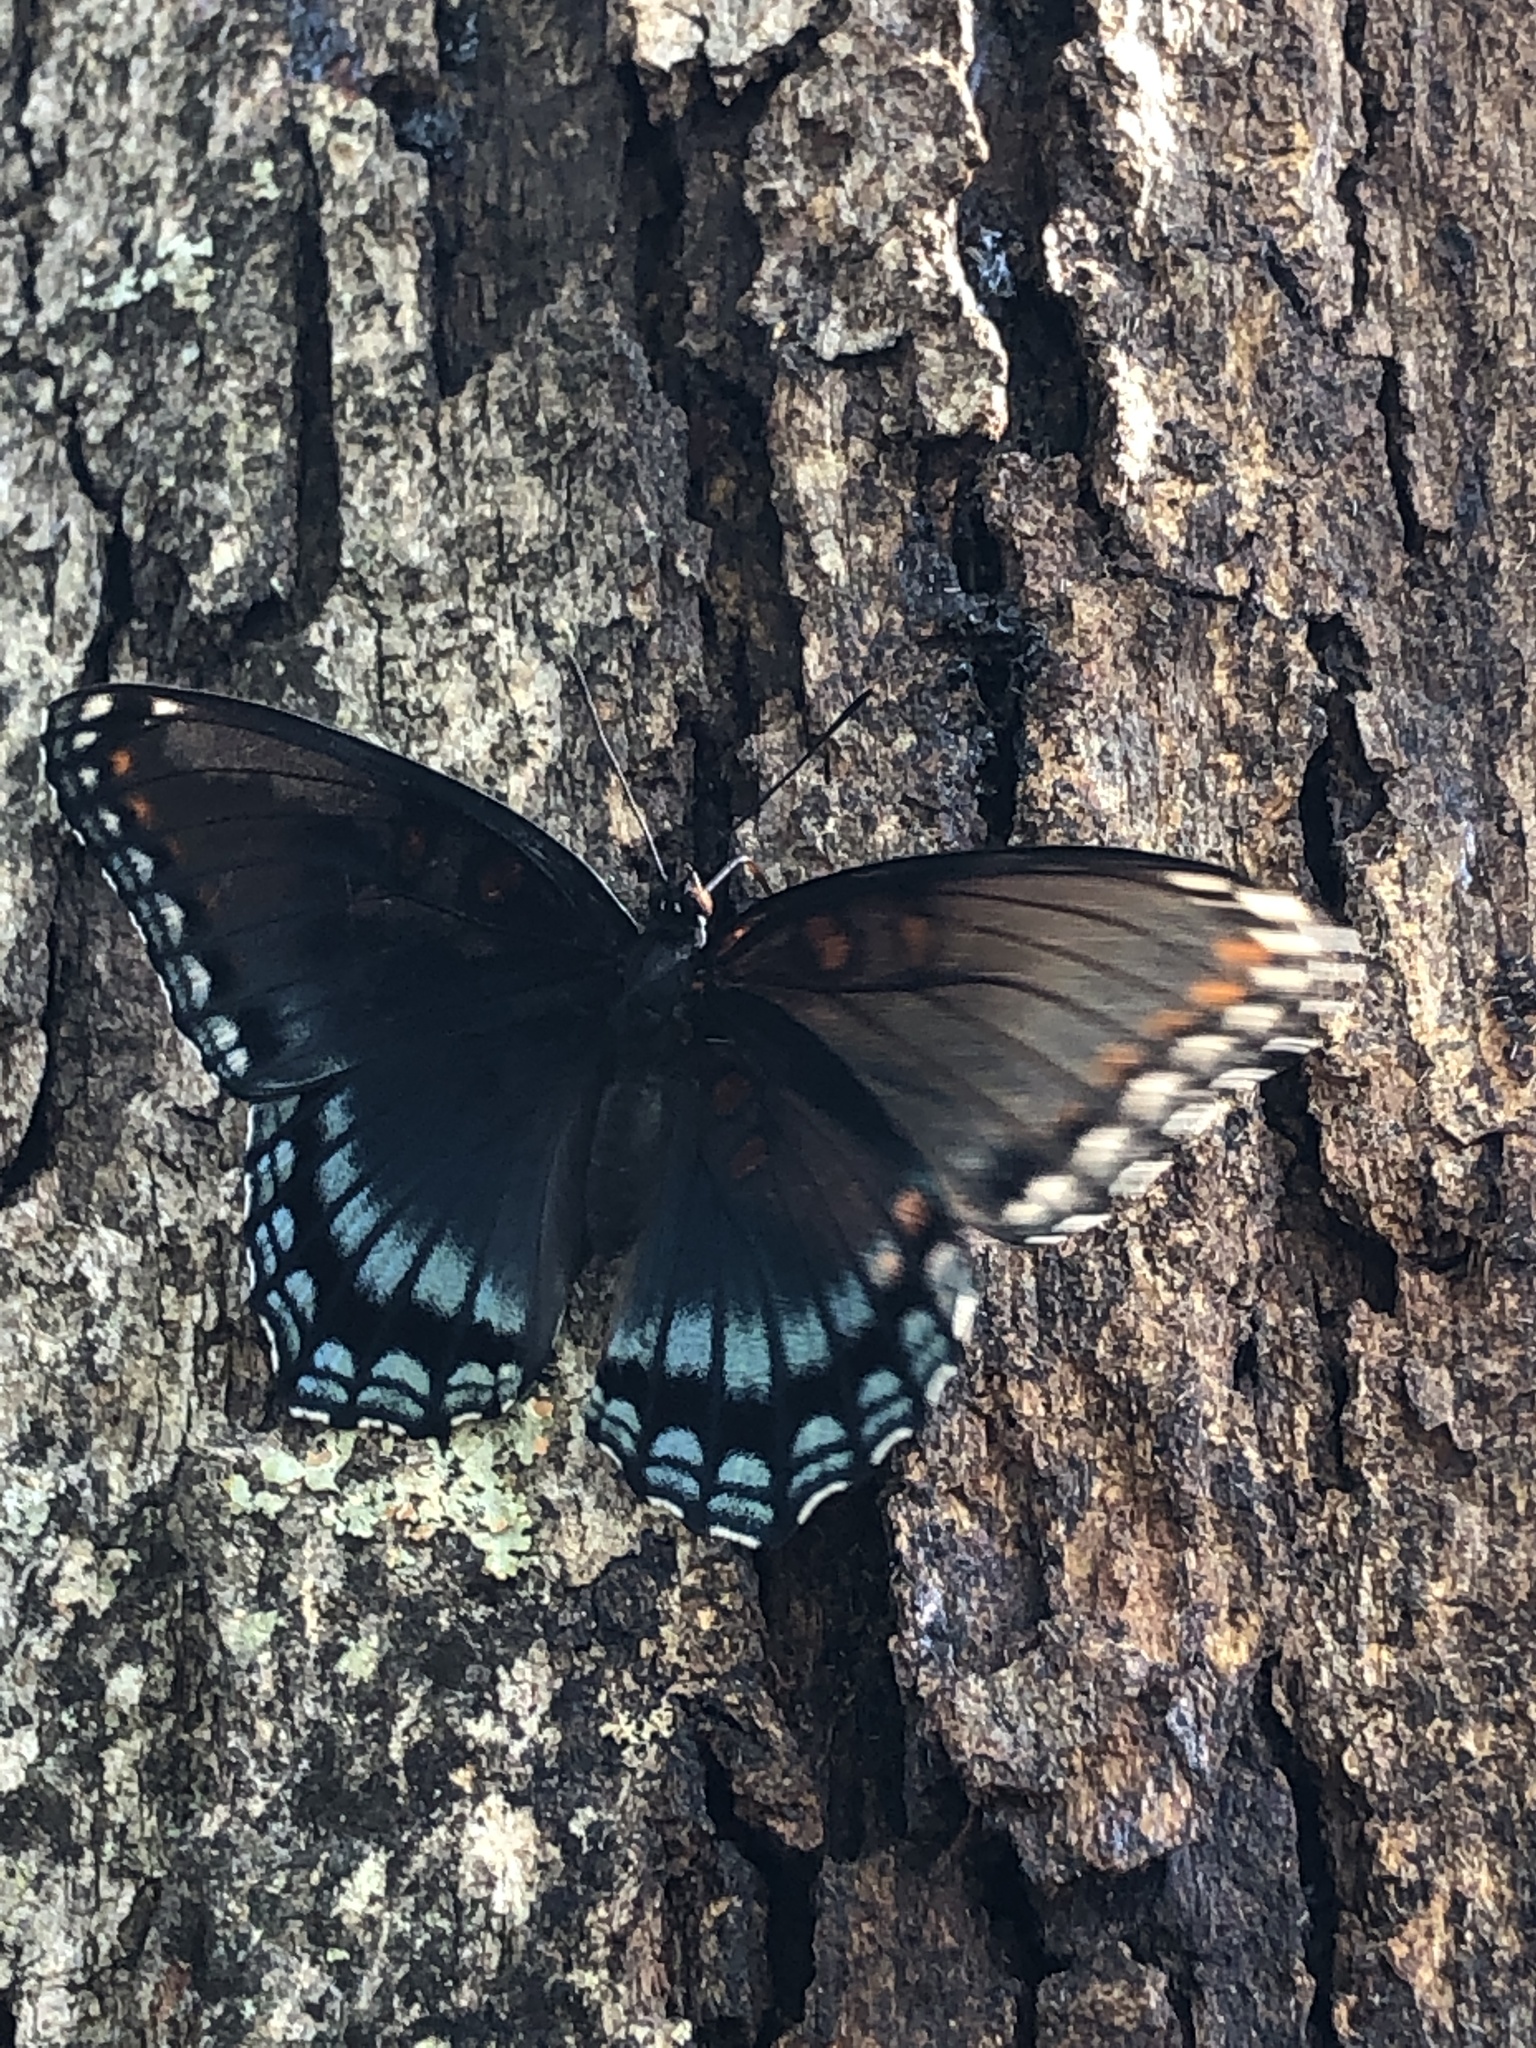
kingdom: Animalia
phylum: Arthropoda
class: Insecta
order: Lepidoptera
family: Nymphalidae
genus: Limenitis
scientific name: Limenitis astyanax
